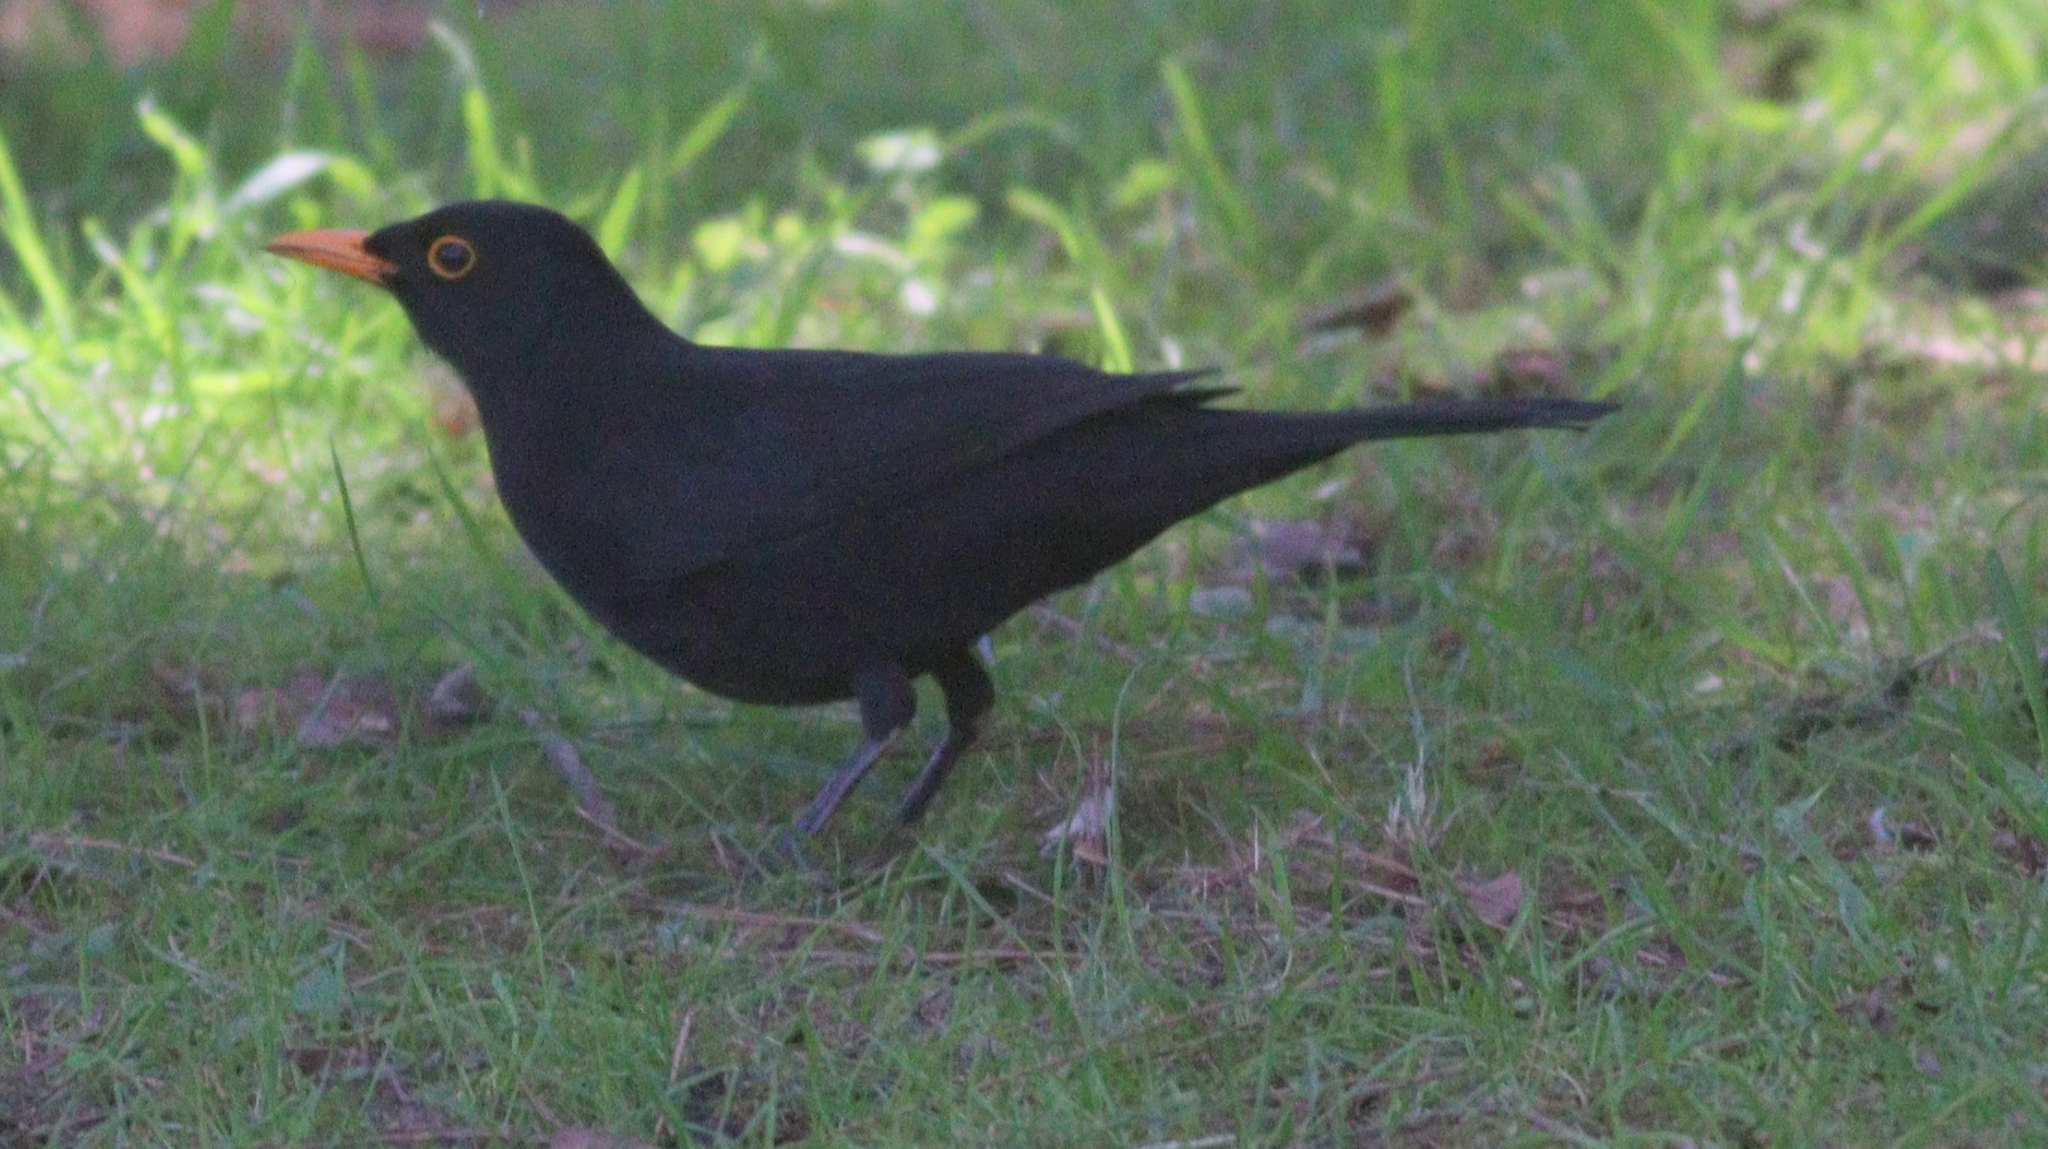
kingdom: Animalia
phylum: Chordata
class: Aves
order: Passeriformes
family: Turdidae
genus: Turdus
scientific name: Turdus merula
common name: Common blackbird
